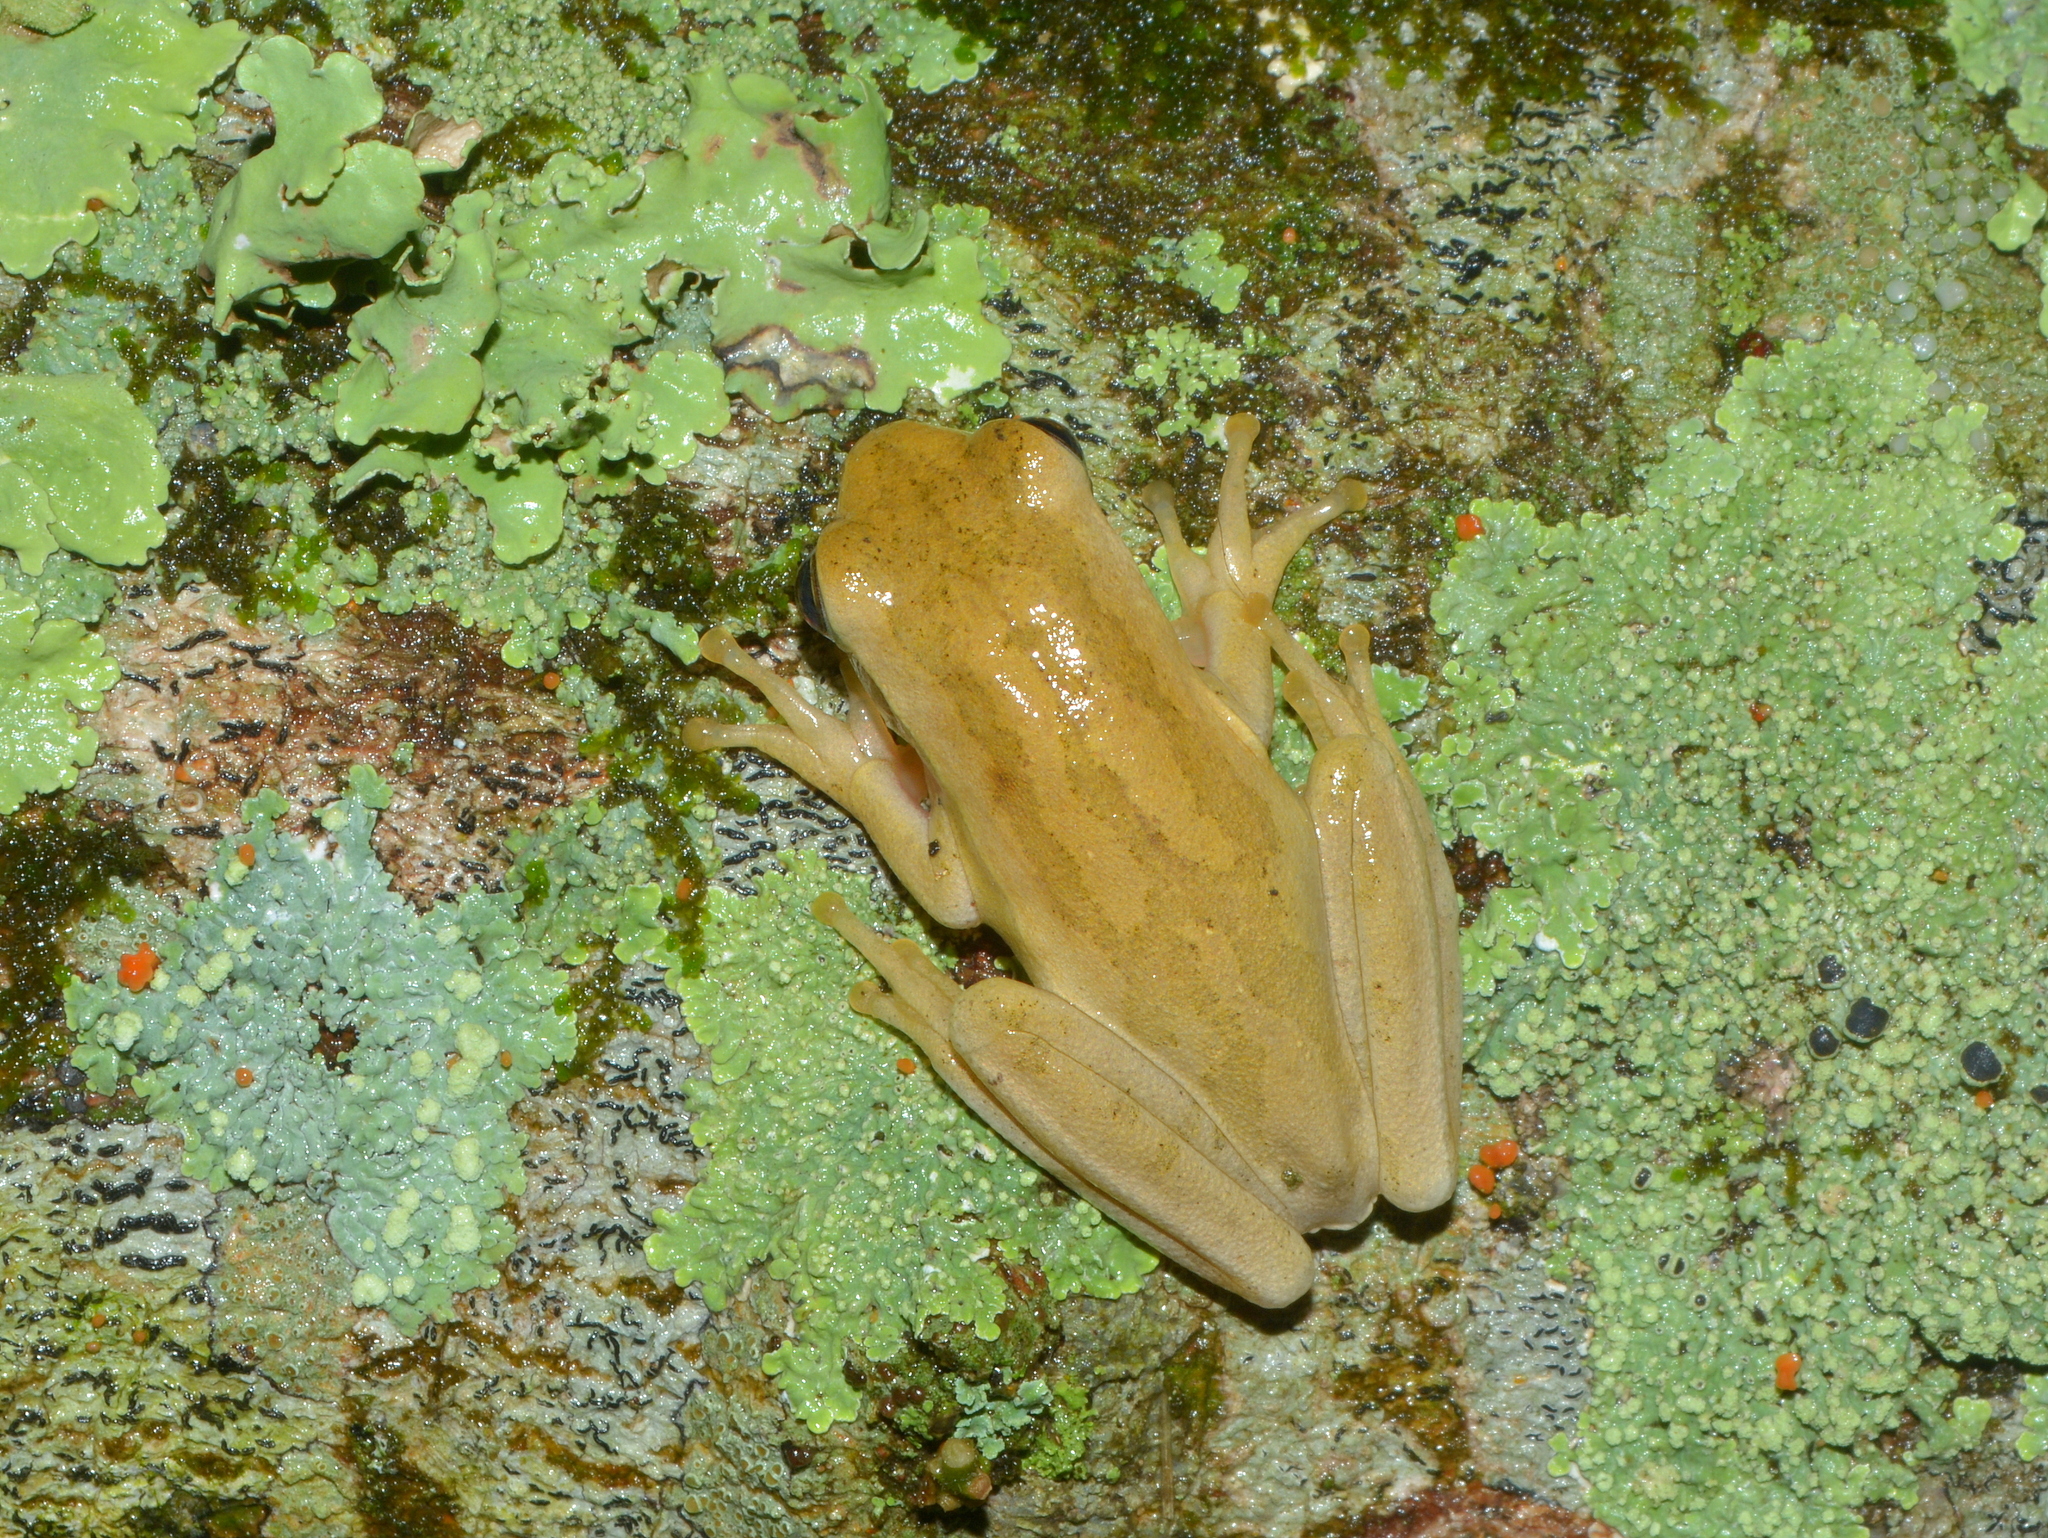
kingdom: Animalia
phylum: Chordata
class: Amphibia
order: Anura
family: Hylidae
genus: Boana
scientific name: Boana pulchella
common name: Montevideo treefrog
